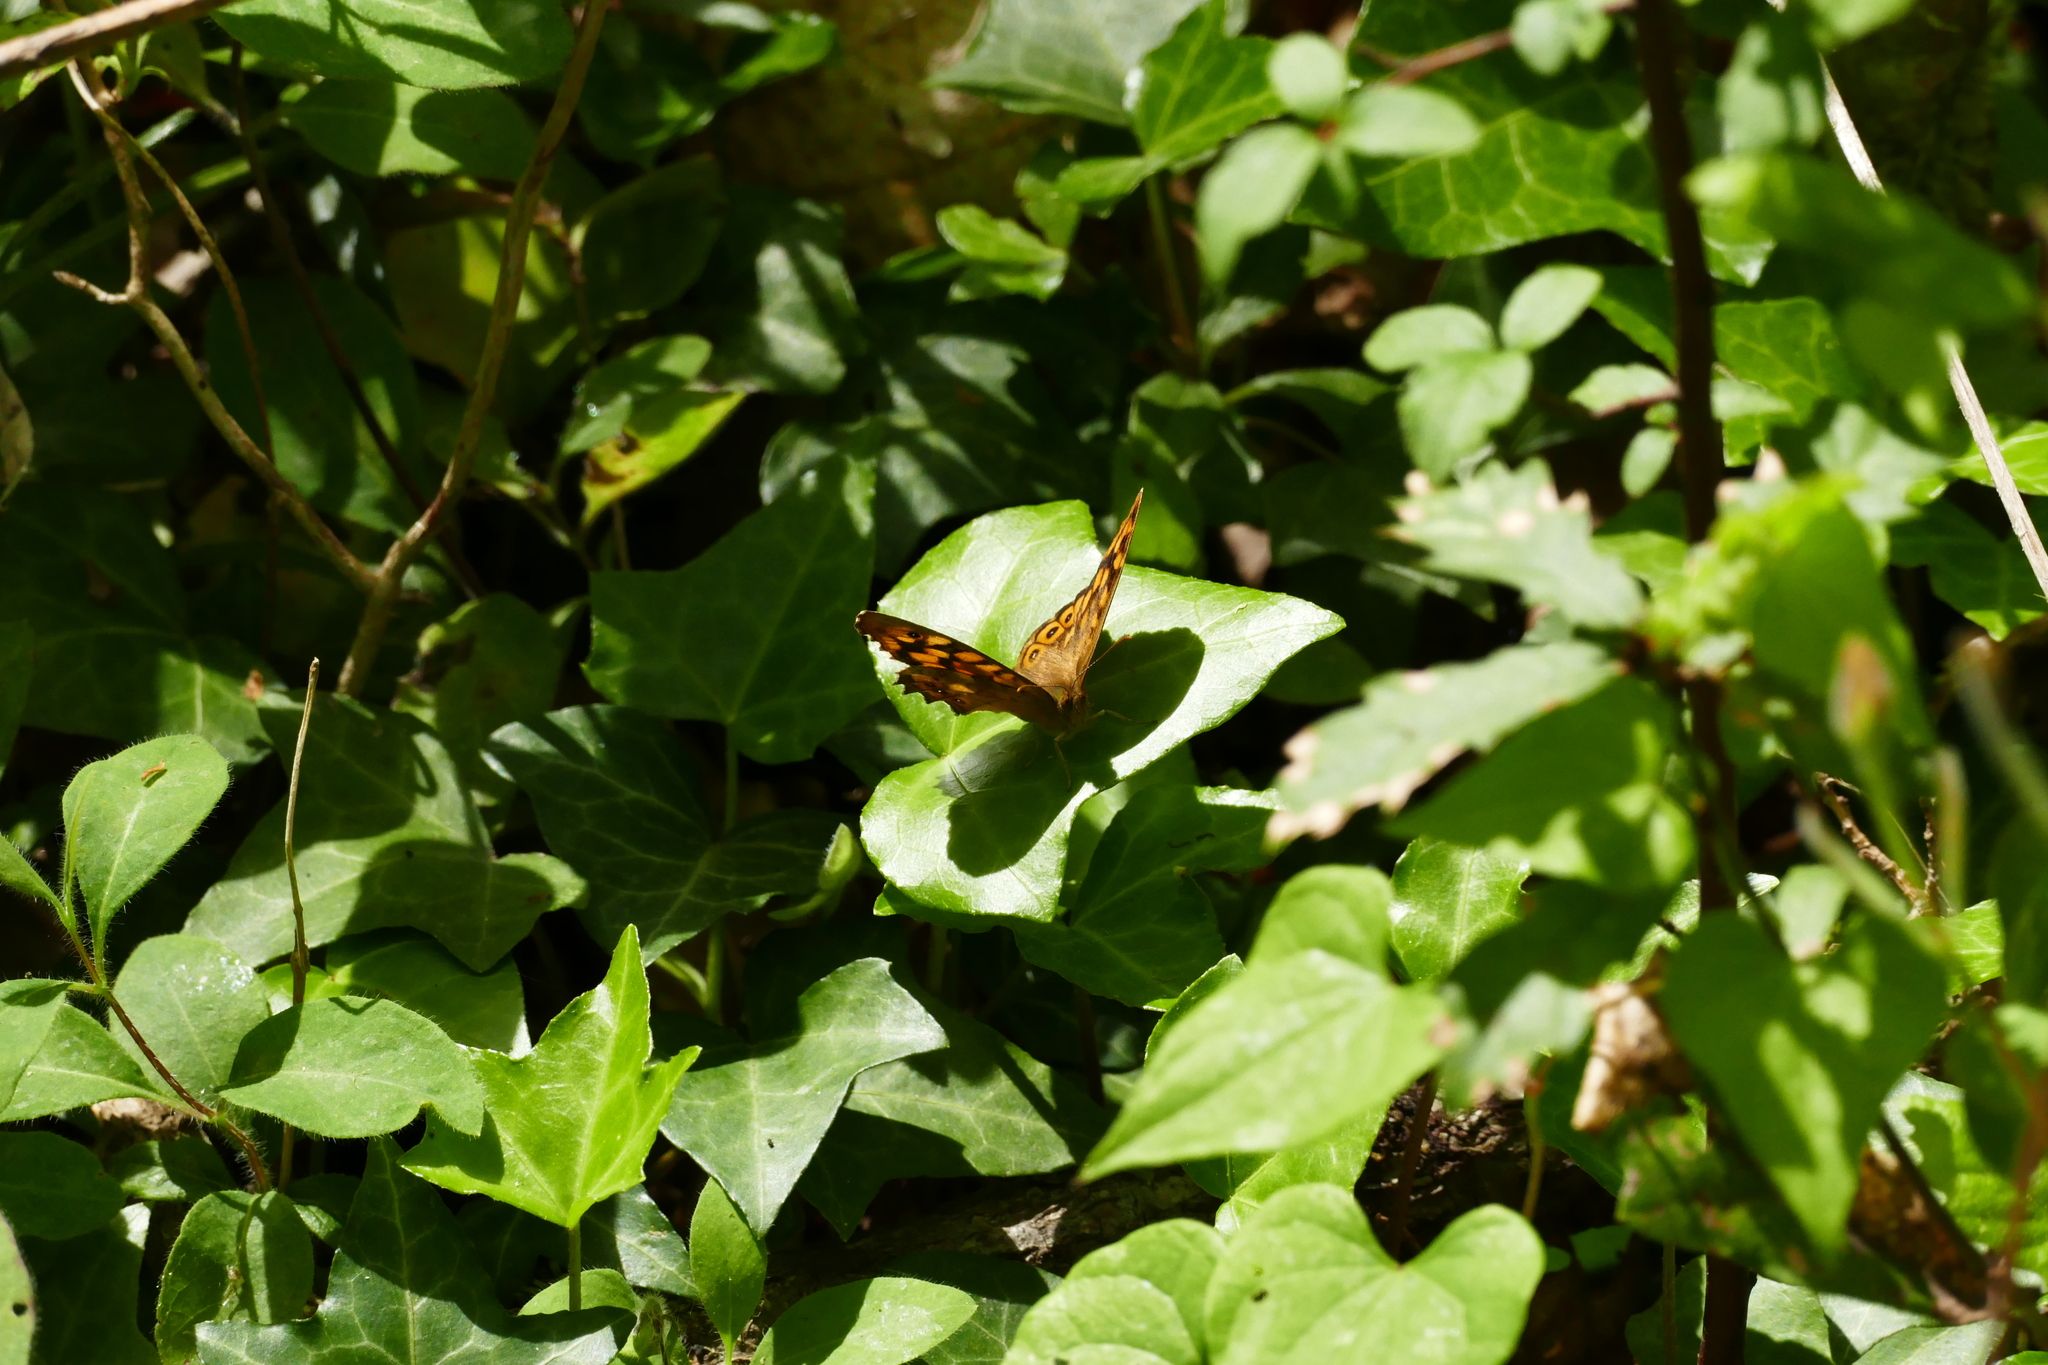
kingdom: Animalia
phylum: Arthropoda
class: Insecta
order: Lepidoptera
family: Nymphalidae
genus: Pararge
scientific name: Pararge aegeria
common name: Speckled wood
